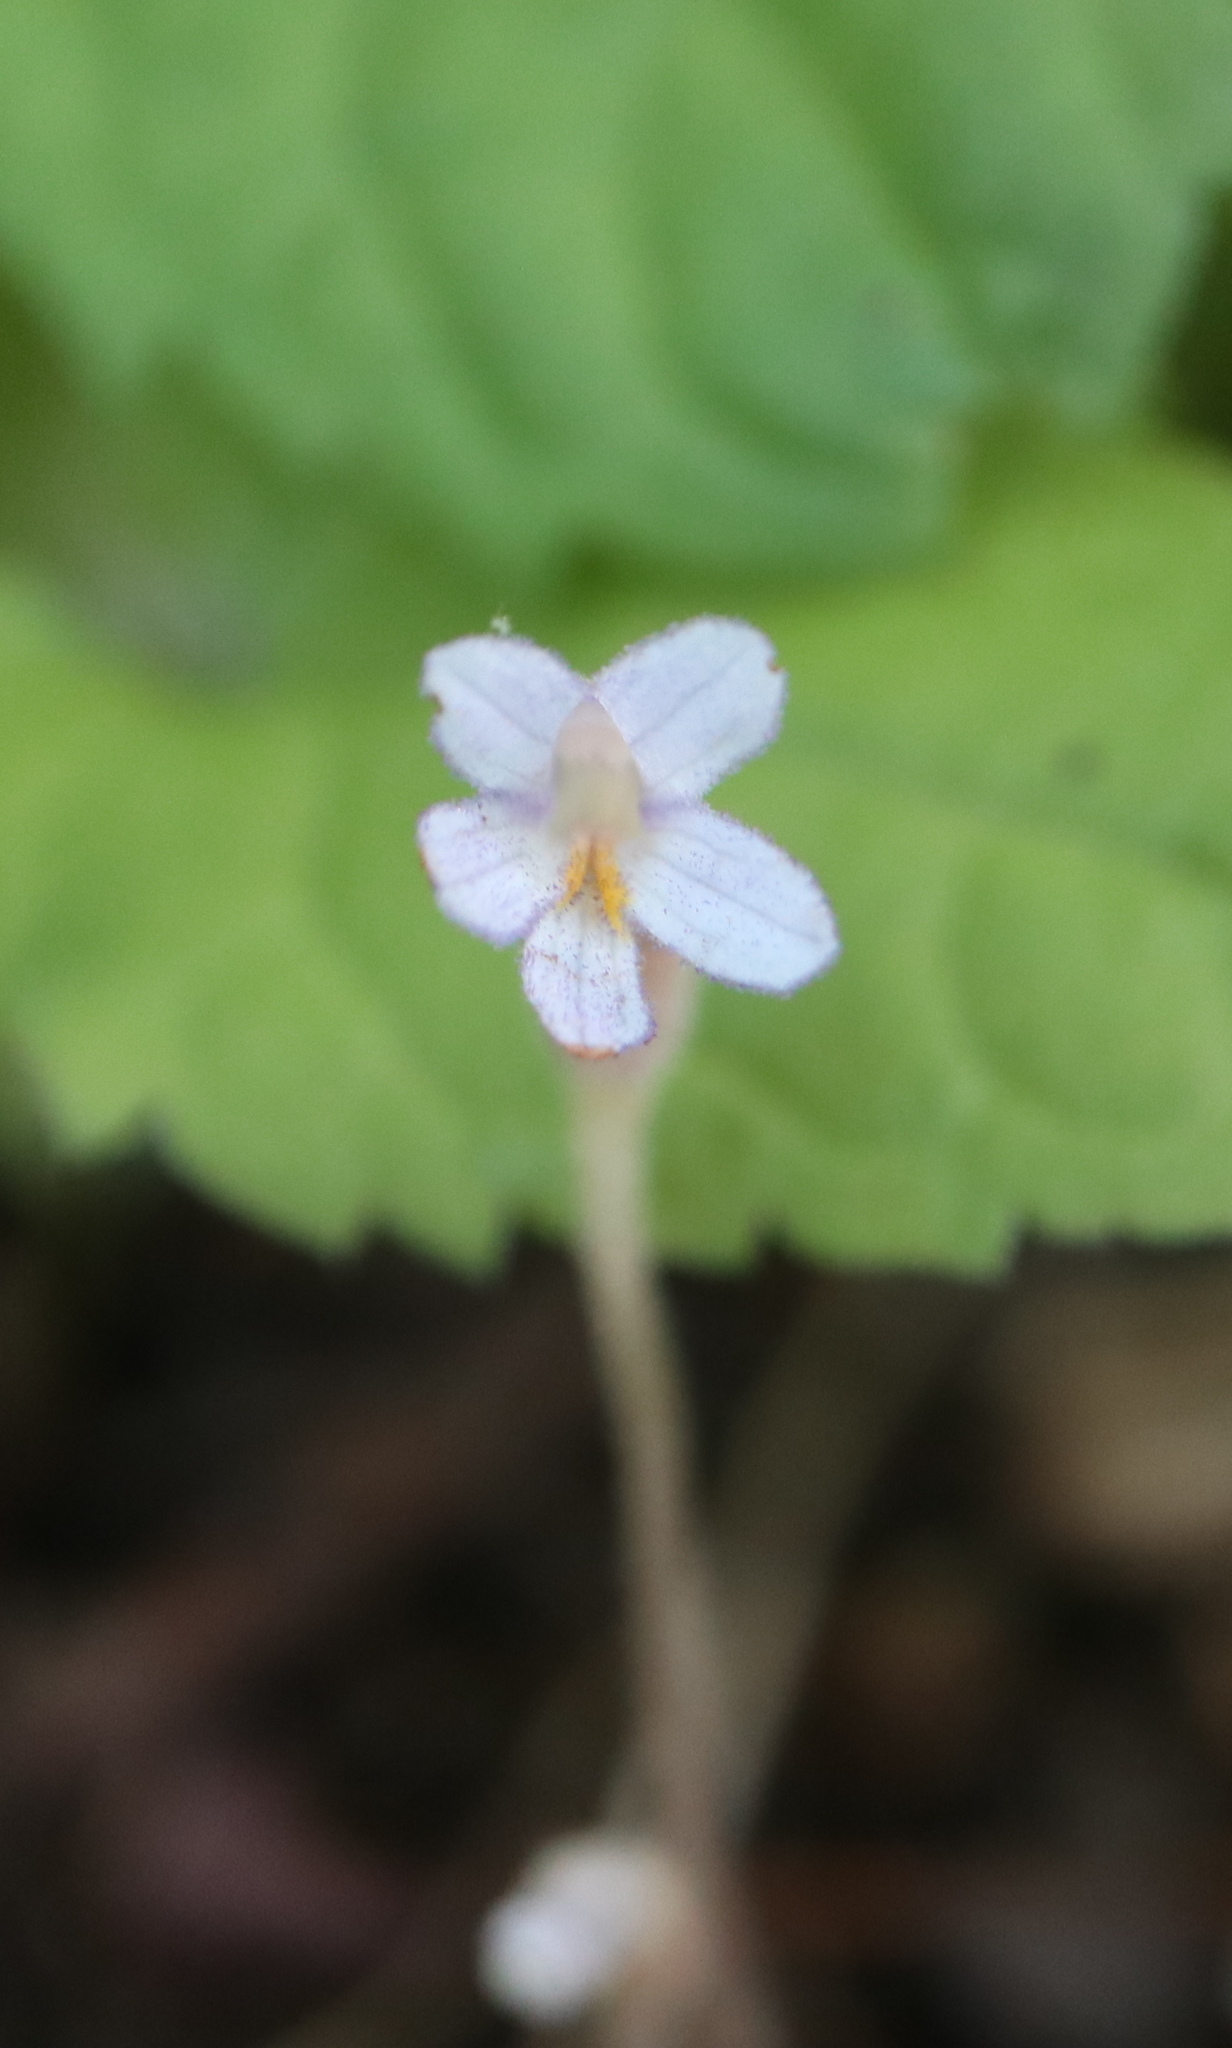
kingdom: Plantae
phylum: Tracheophyta
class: Magnoliopsida
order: Lamiales
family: Orobanchaceae
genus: Aphyllon
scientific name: Aphyllon uniflorum
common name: One-flowered broomrape
